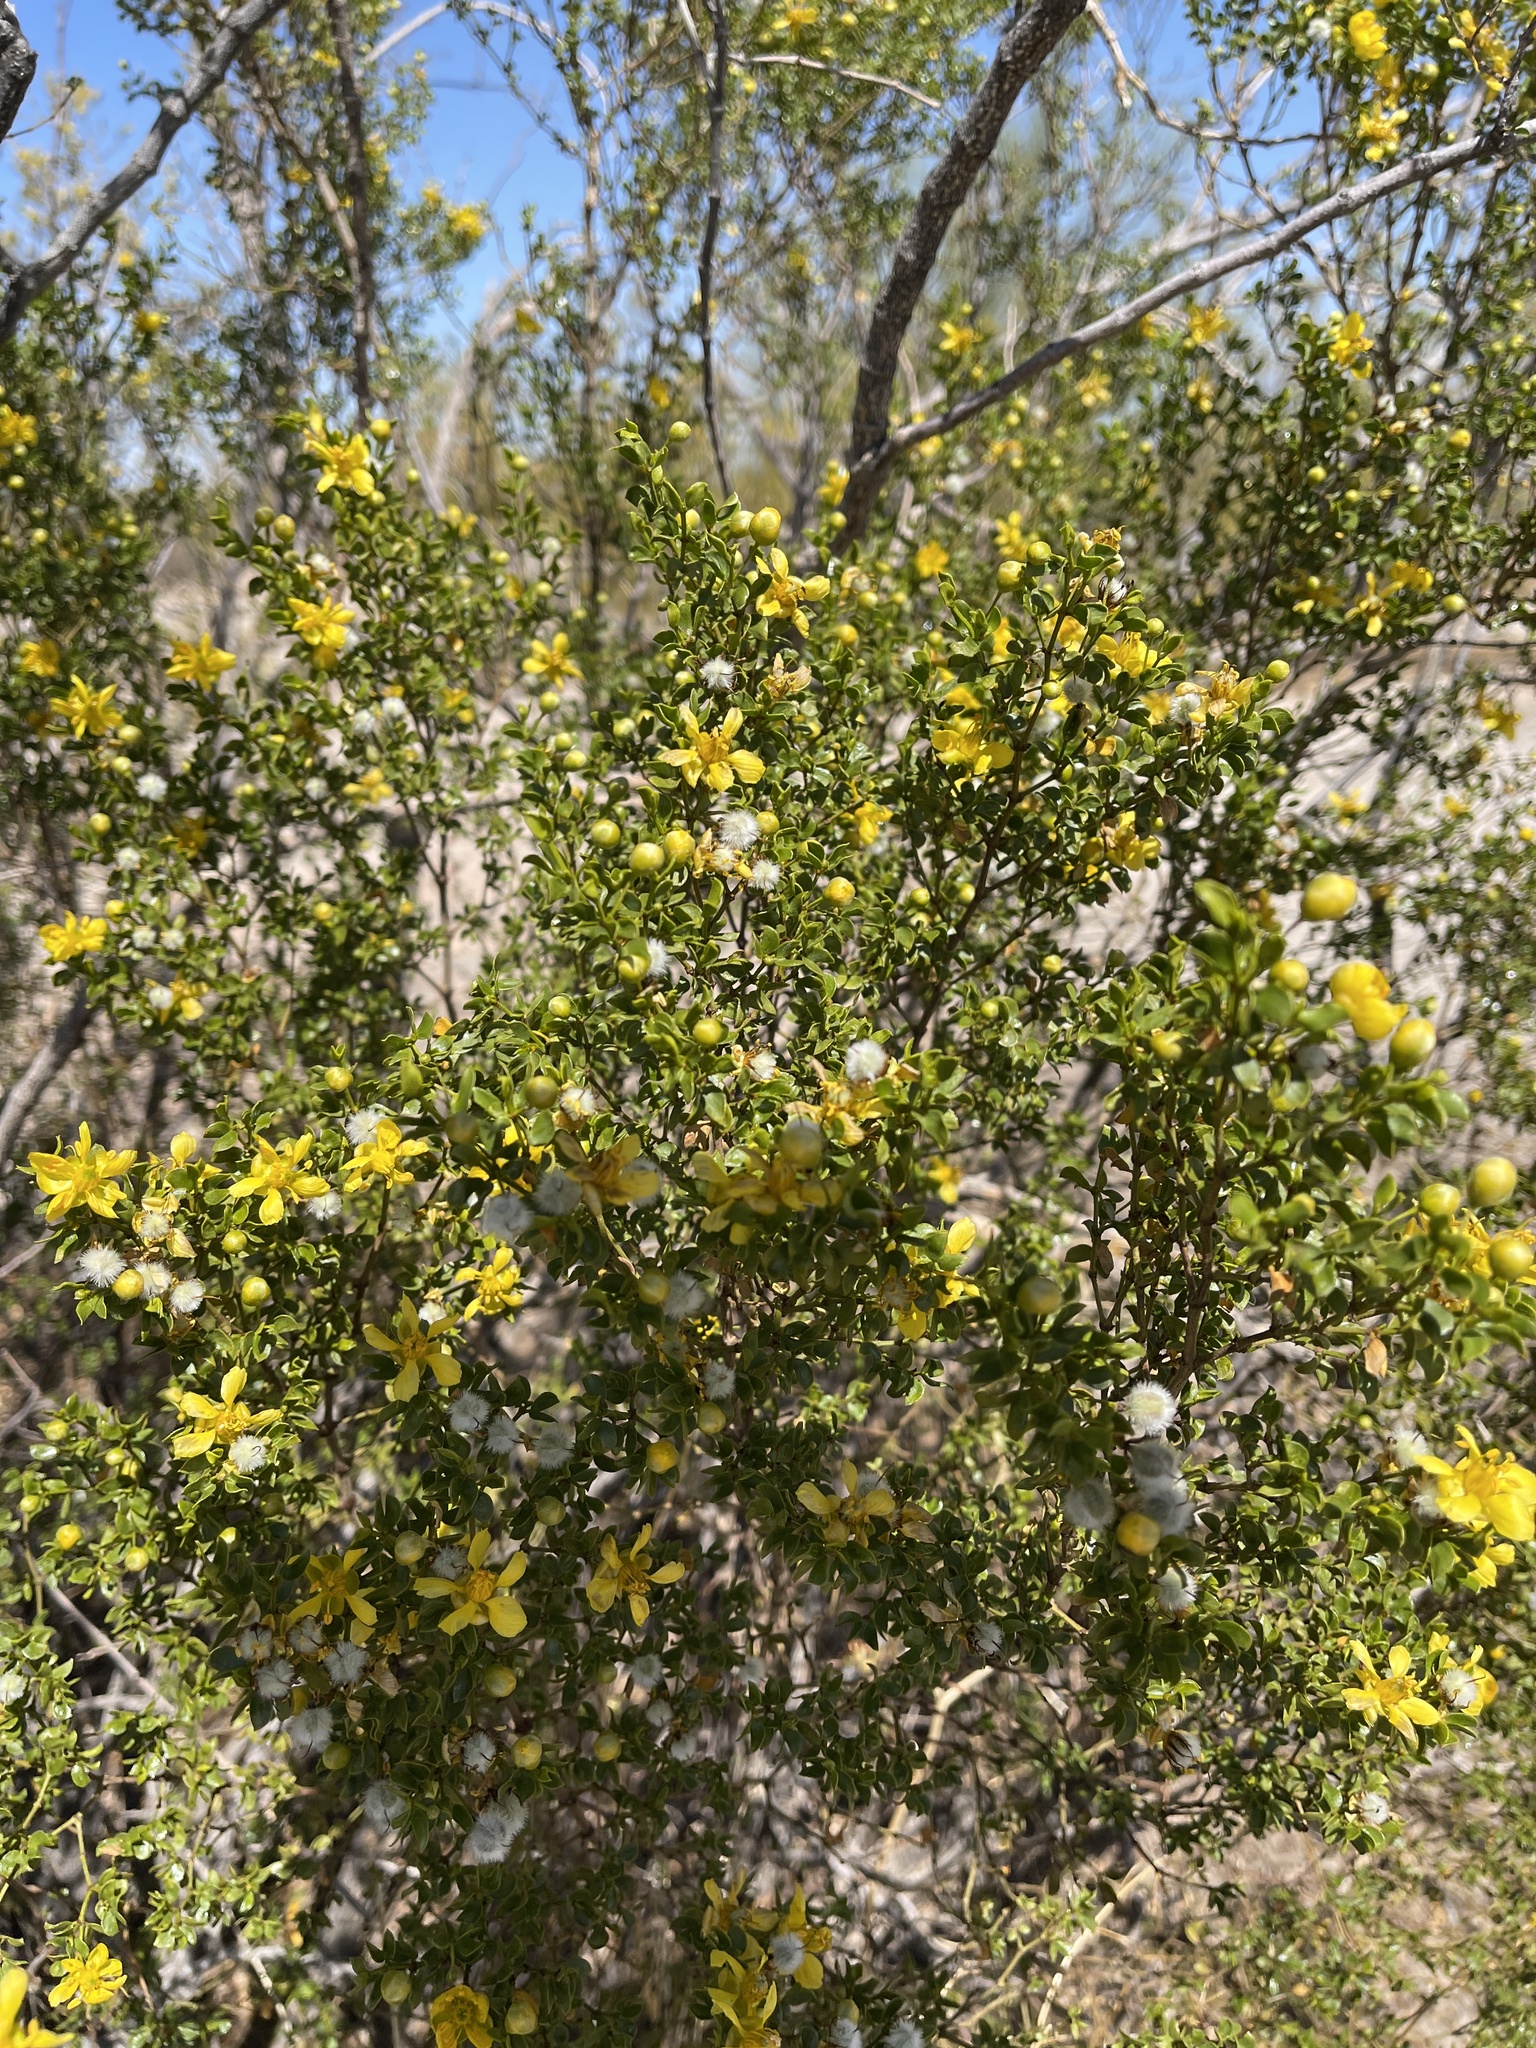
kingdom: Plantae
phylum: Tracheophyta
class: Magnoliopsida
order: Zygophyllales
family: Zygophyllaceae
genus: Larrea
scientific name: Larrea tridentata
